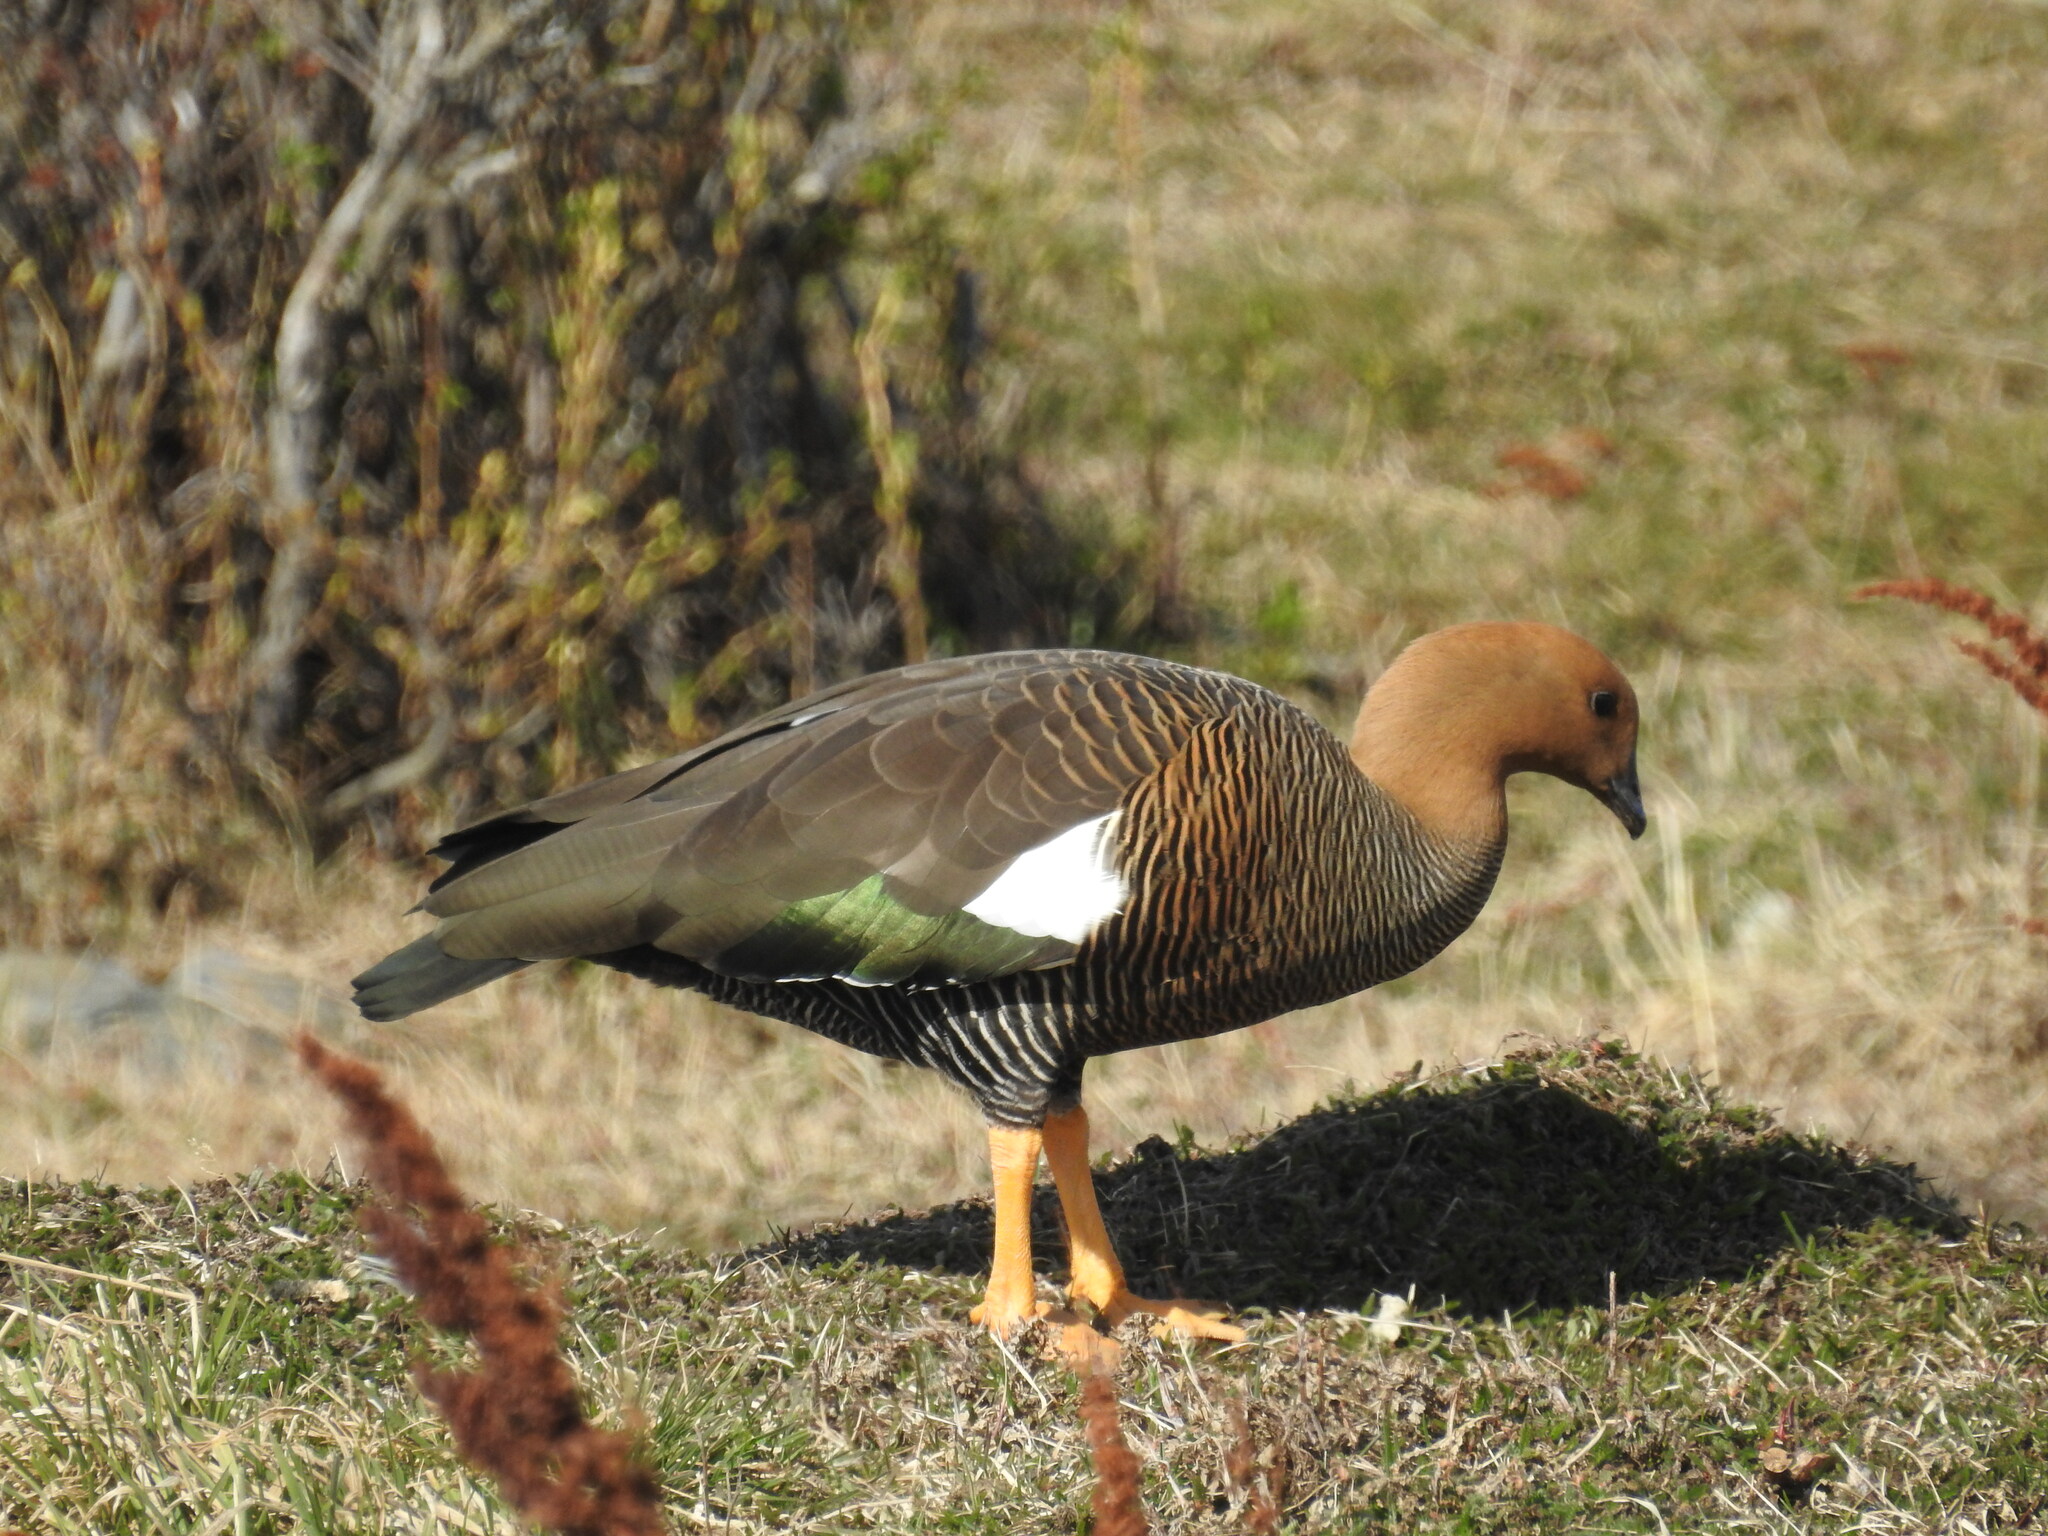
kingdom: Animalia
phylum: Chordata
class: Aves
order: Anseriformes
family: Anatidae
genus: Chloephaga
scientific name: Chloephaga picta
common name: Upland goose
